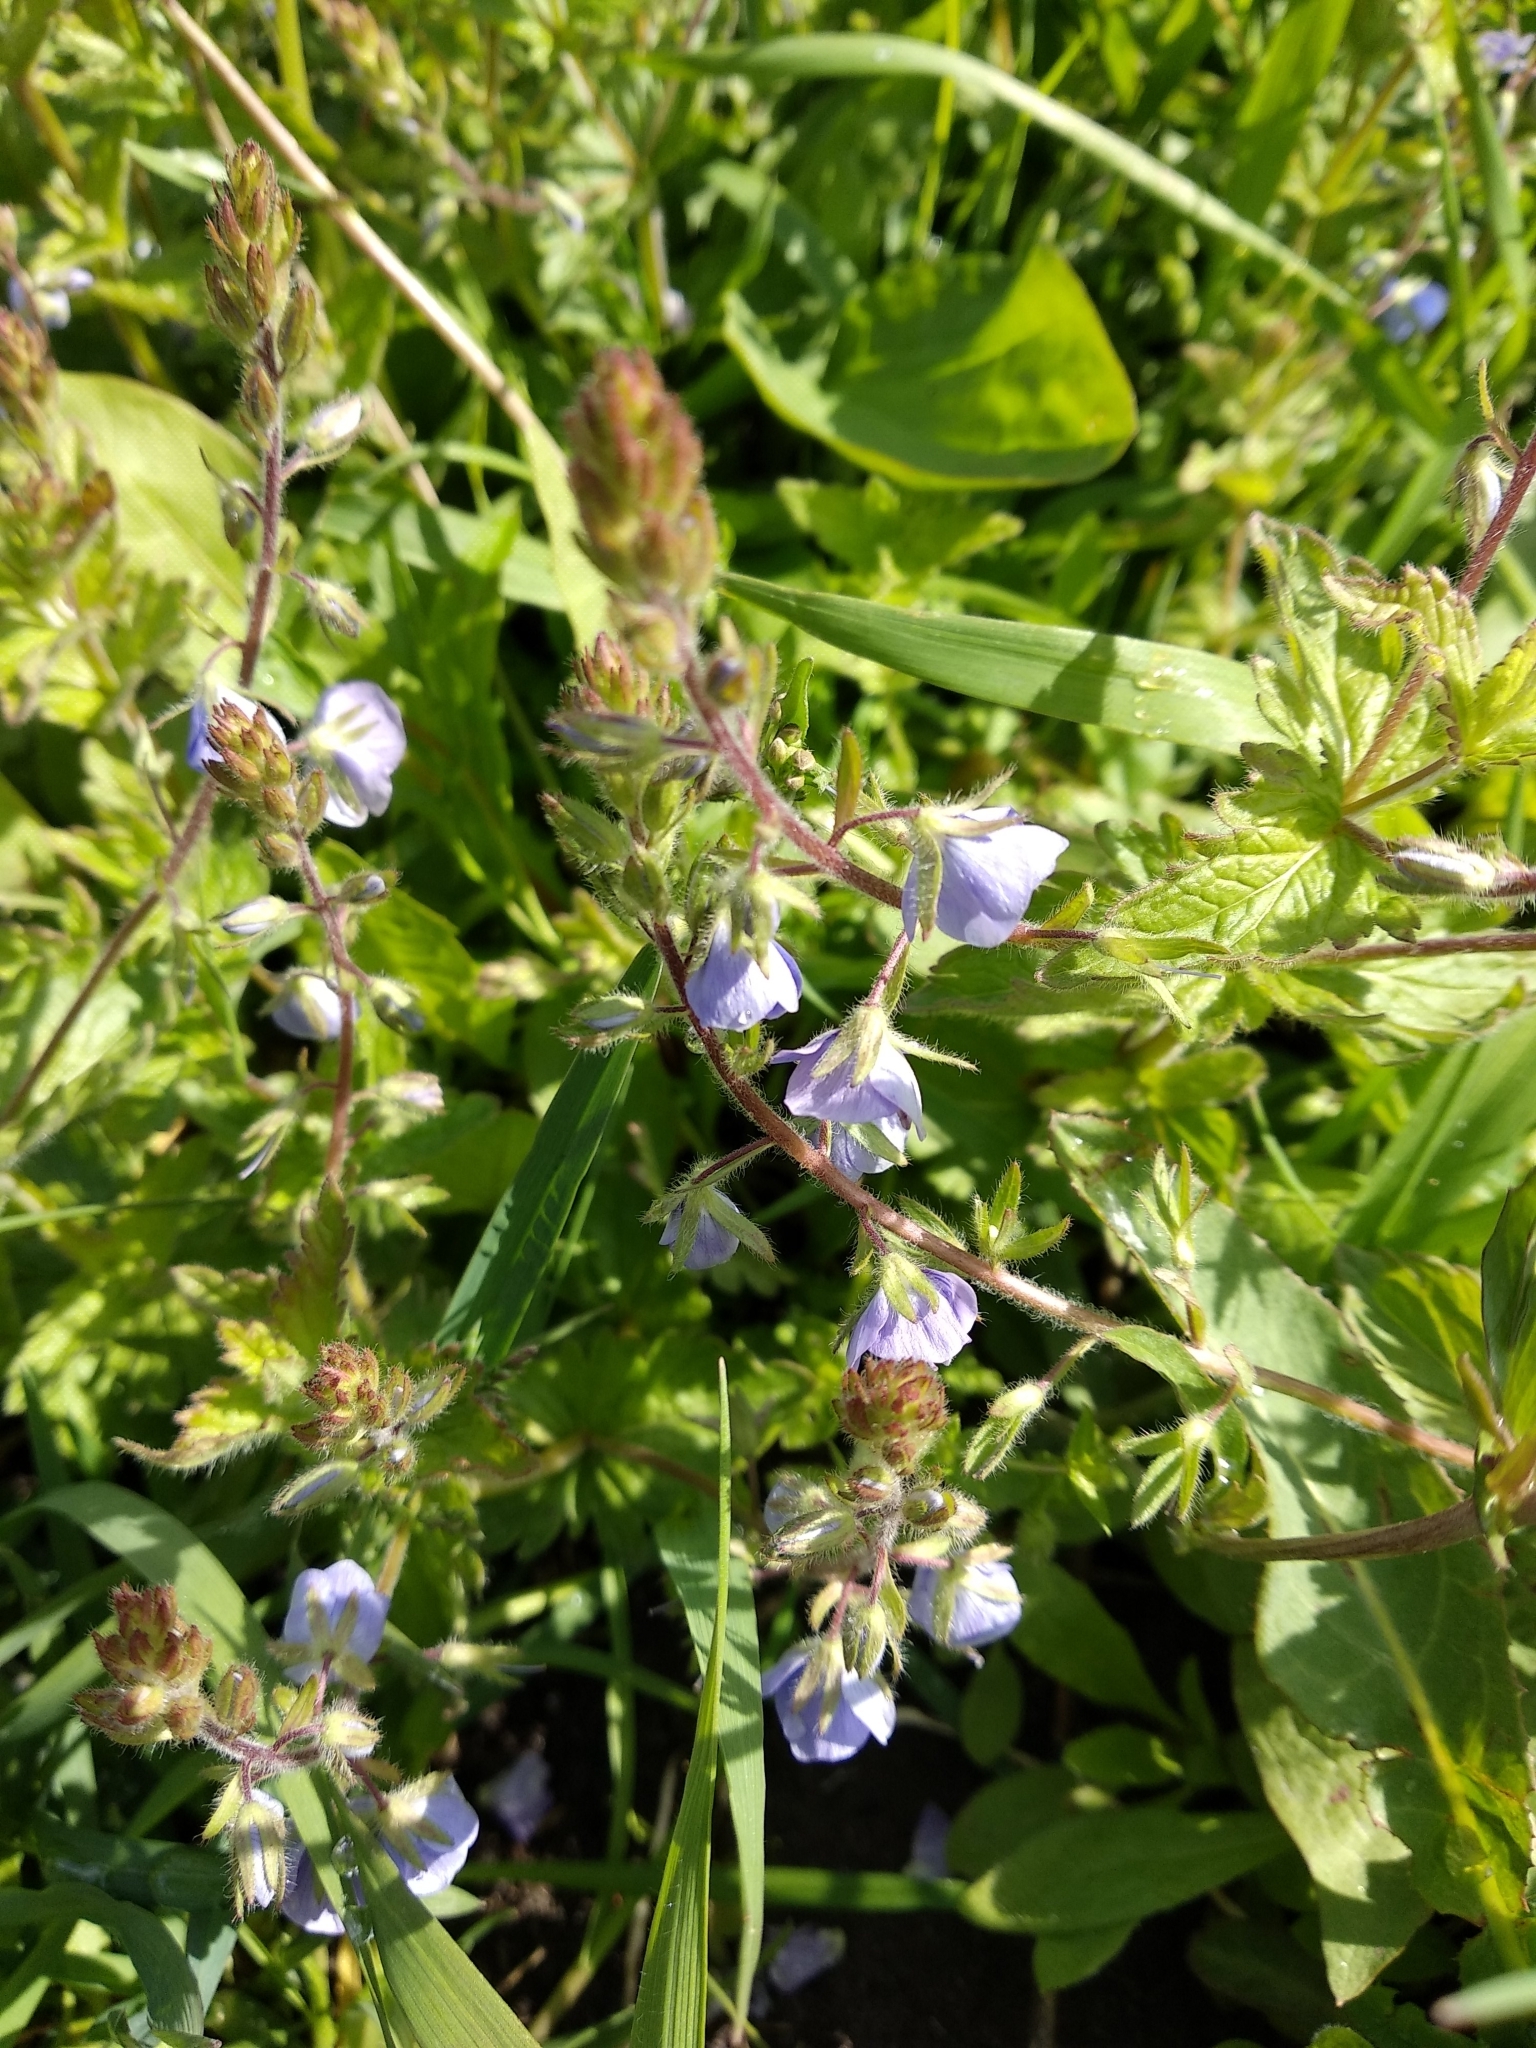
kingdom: Plantae
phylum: Tracheophyta
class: Magnoliopsida
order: Lamiales
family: Plantaginaceae
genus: Veronica
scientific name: Veronica chamaedrys
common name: Germander speedwell
